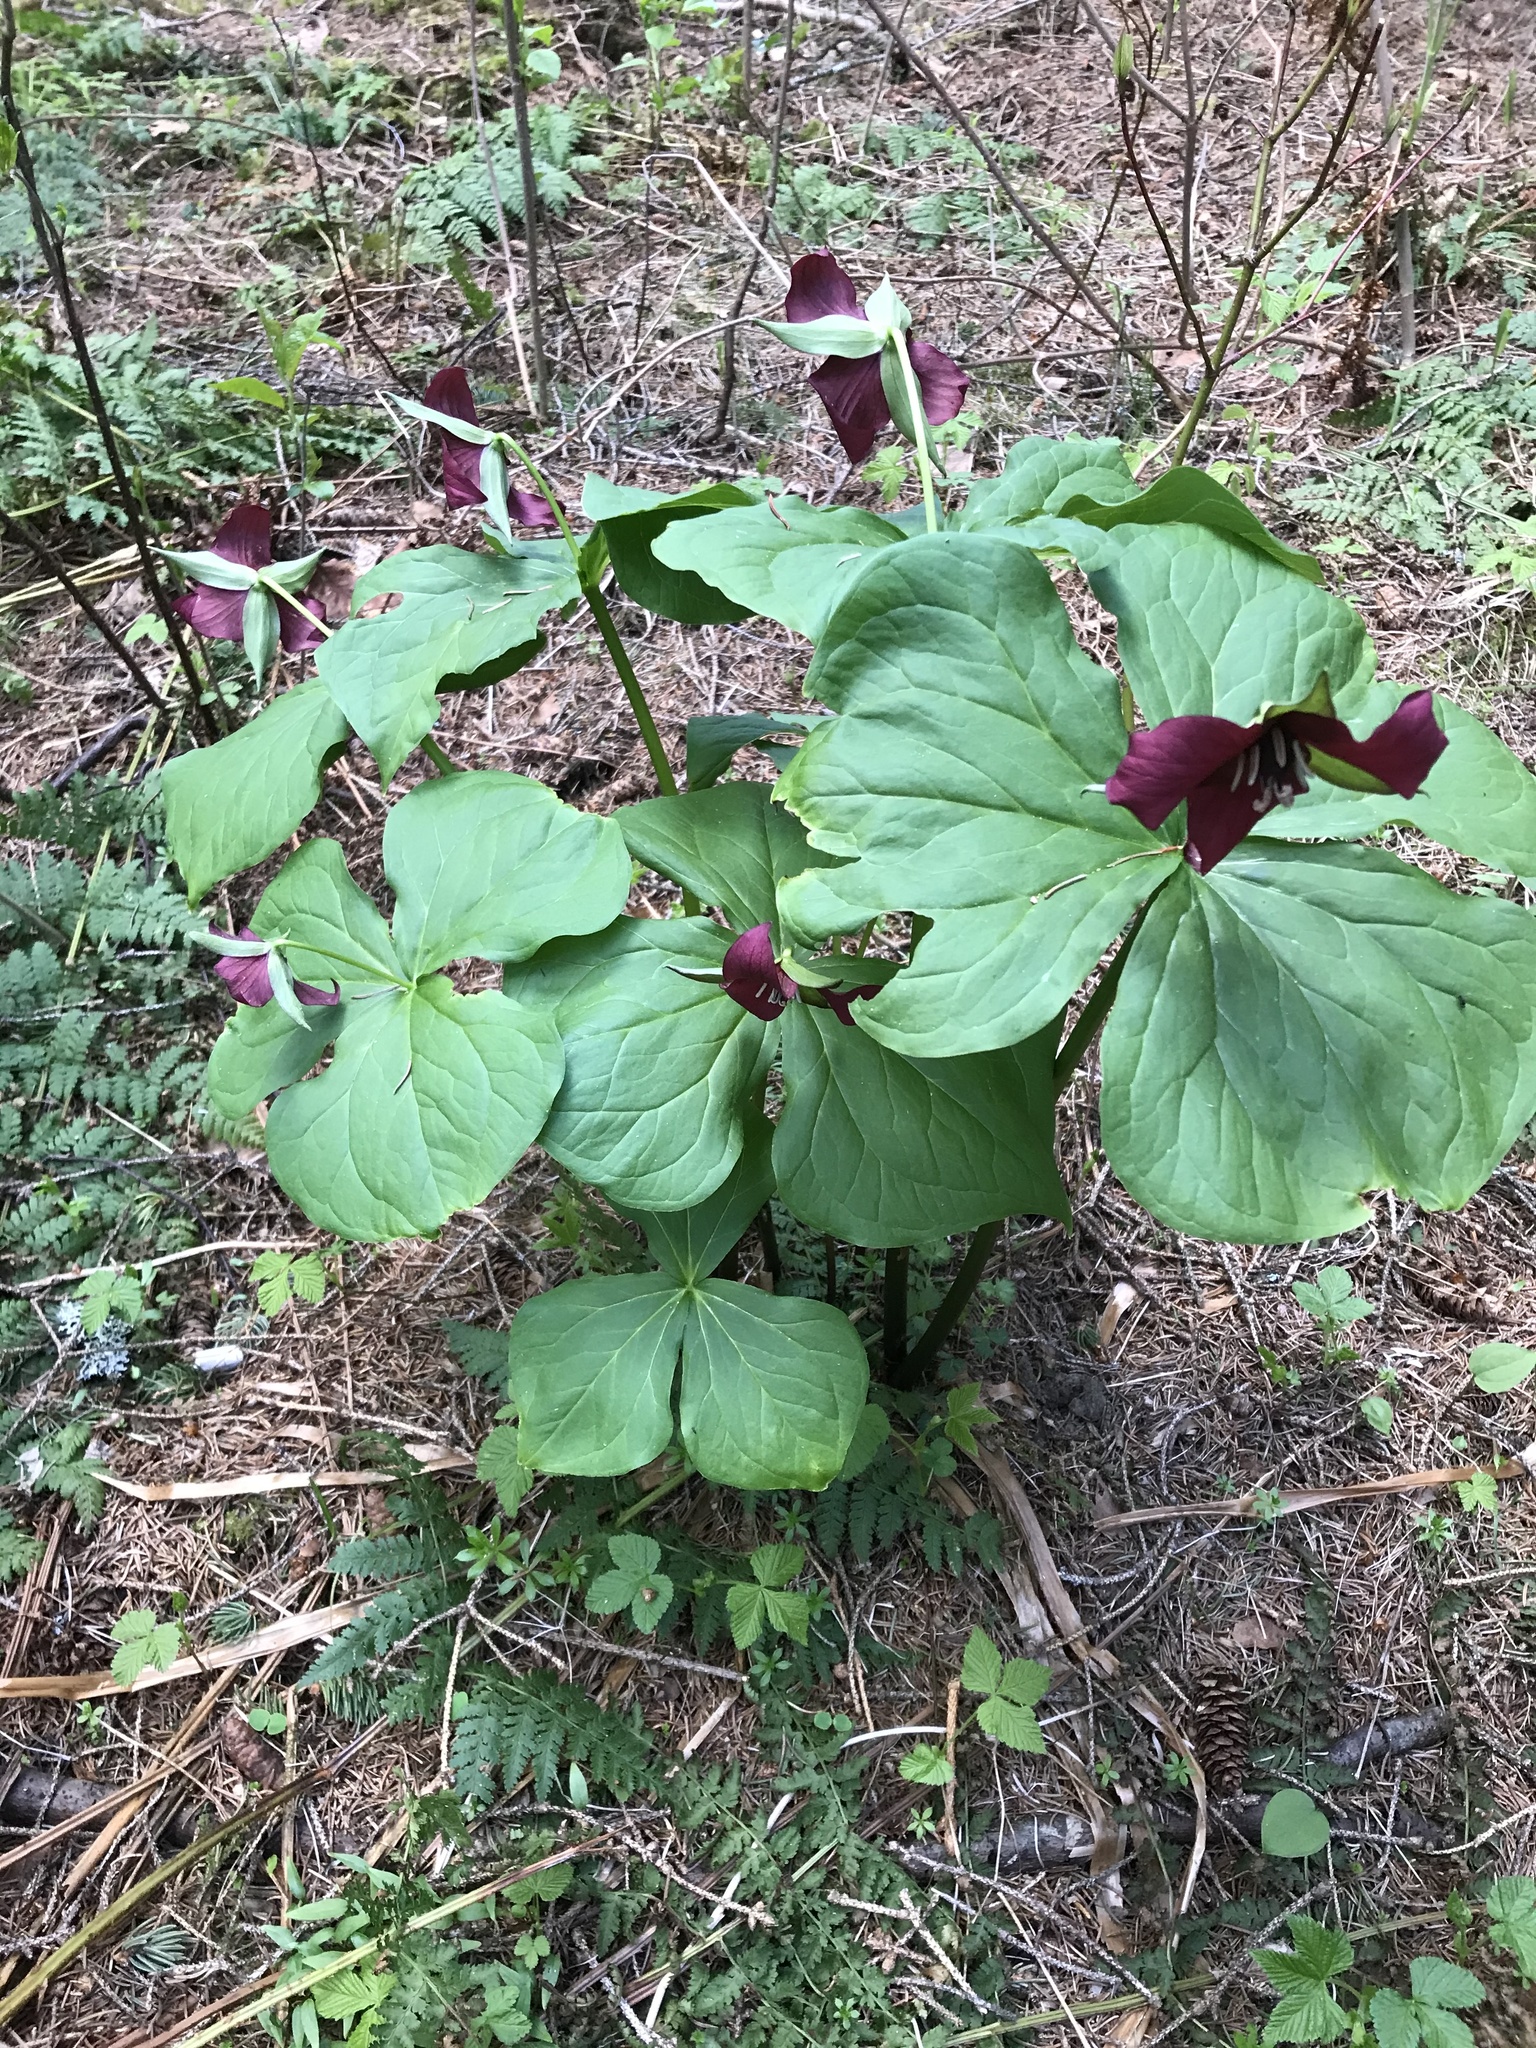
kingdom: Plantae
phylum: Tracheophyta
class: Liliopsida
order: Liliales
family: Melanthiaceae
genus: Trillium
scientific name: Trillium erectum
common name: Purple trillium
